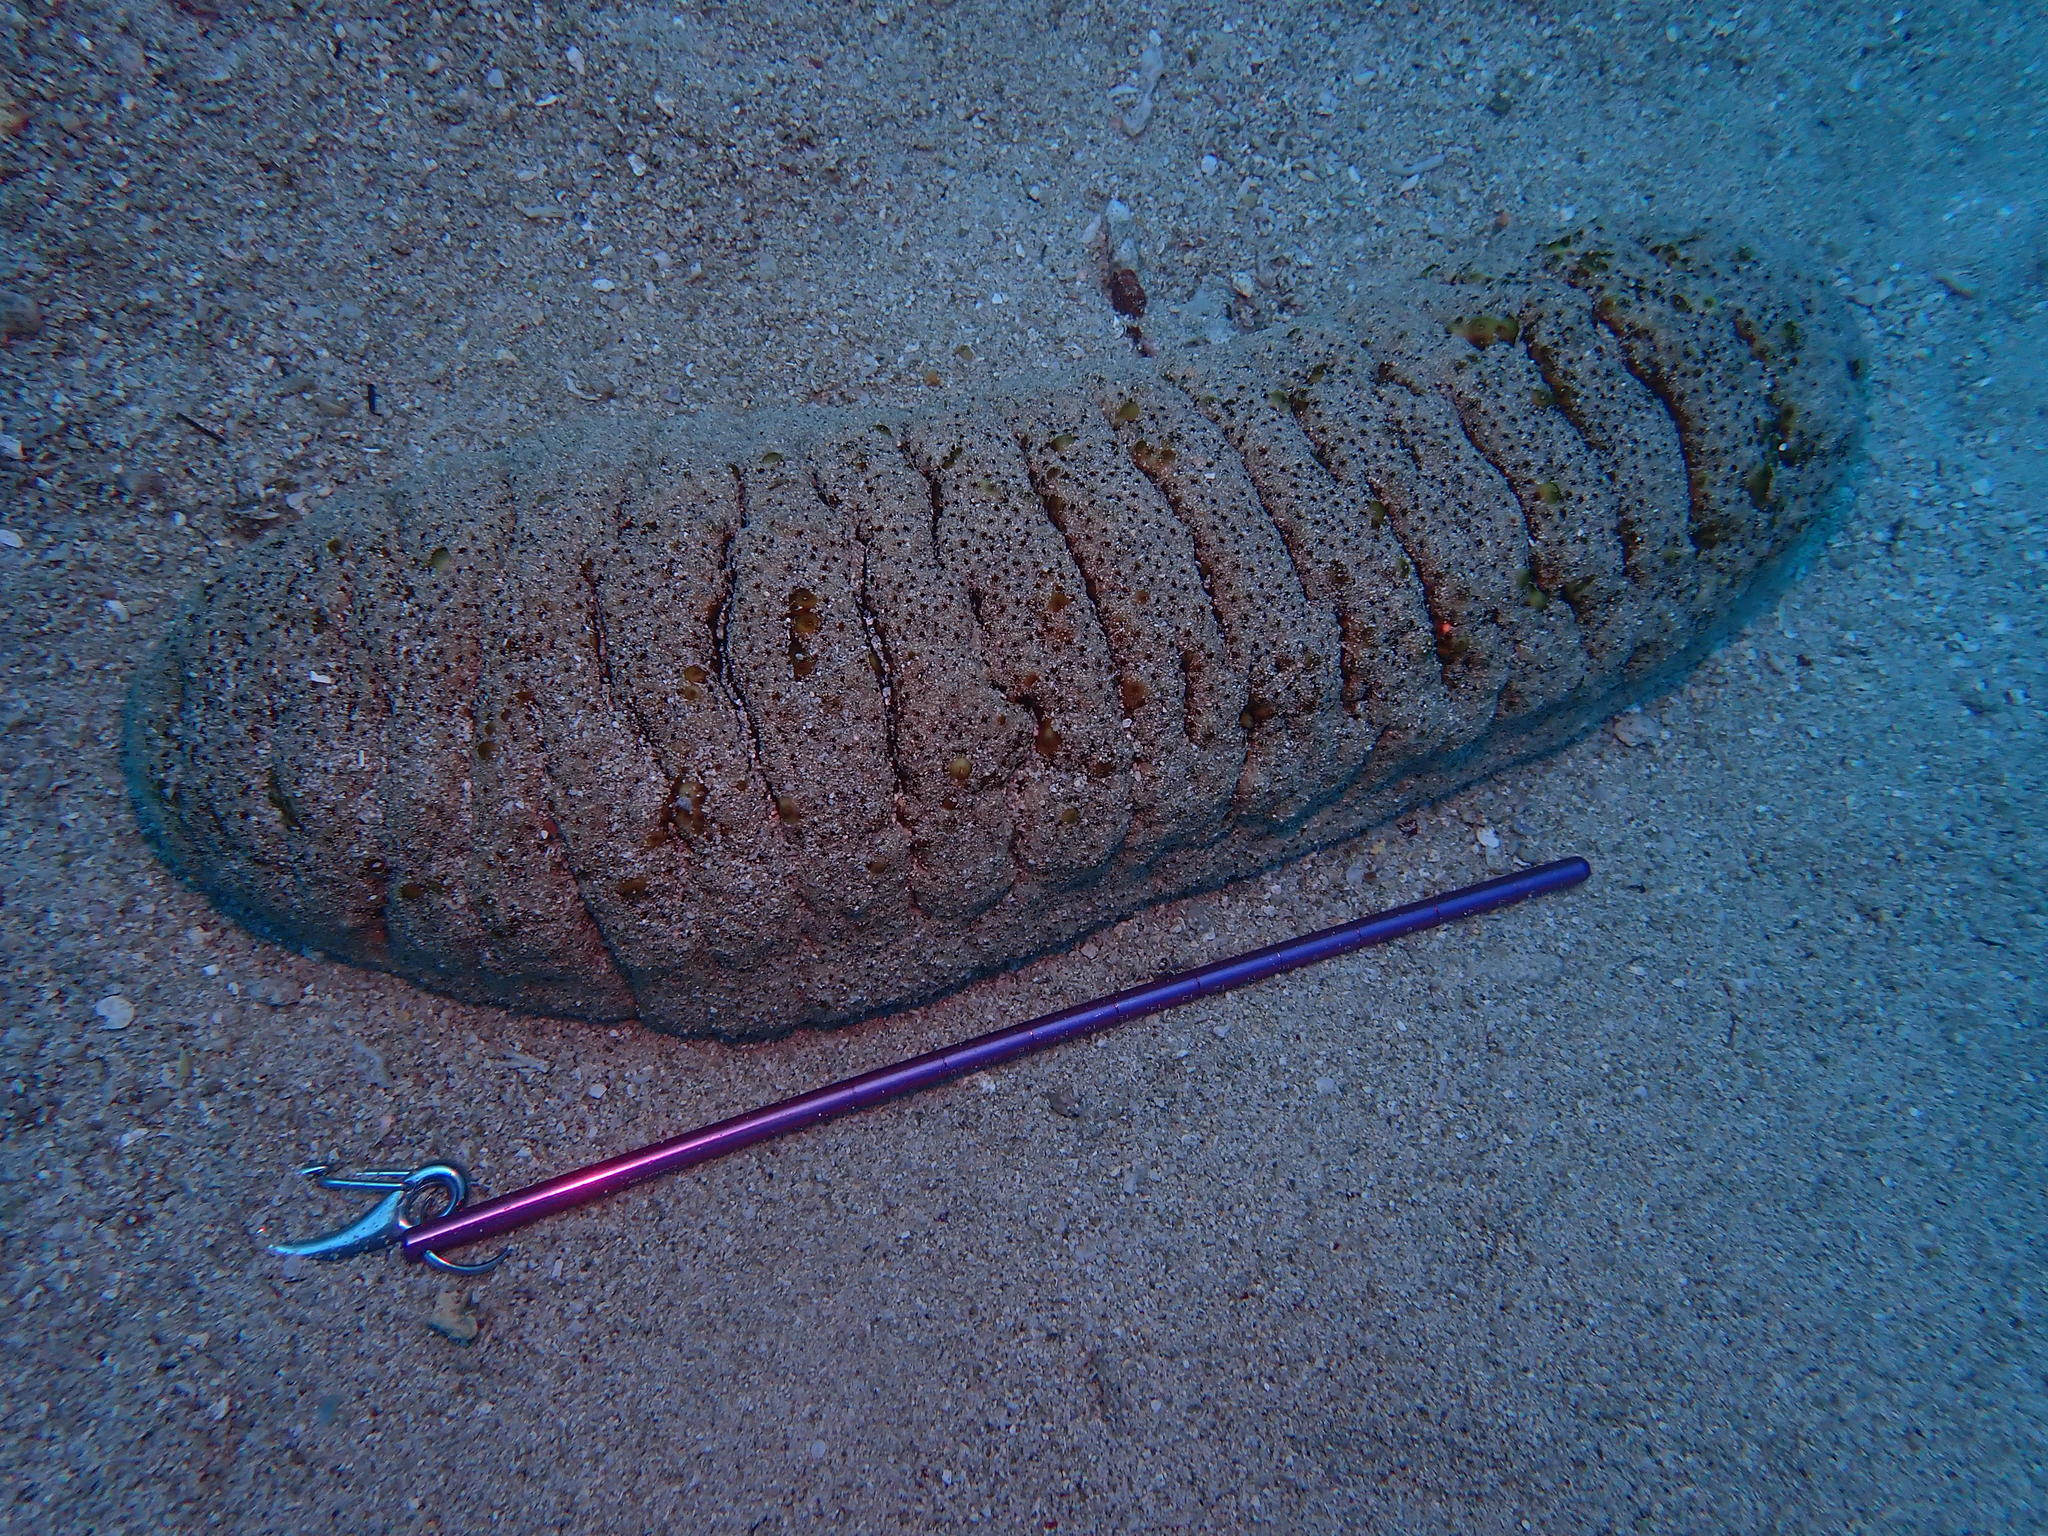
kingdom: Animalia
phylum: Echinodermata
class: Holothuroidea
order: Holothuriida
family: Holothuriidae
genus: Holothuria
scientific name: Holothuria fuscopunctata
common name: Elephant trunkfish
